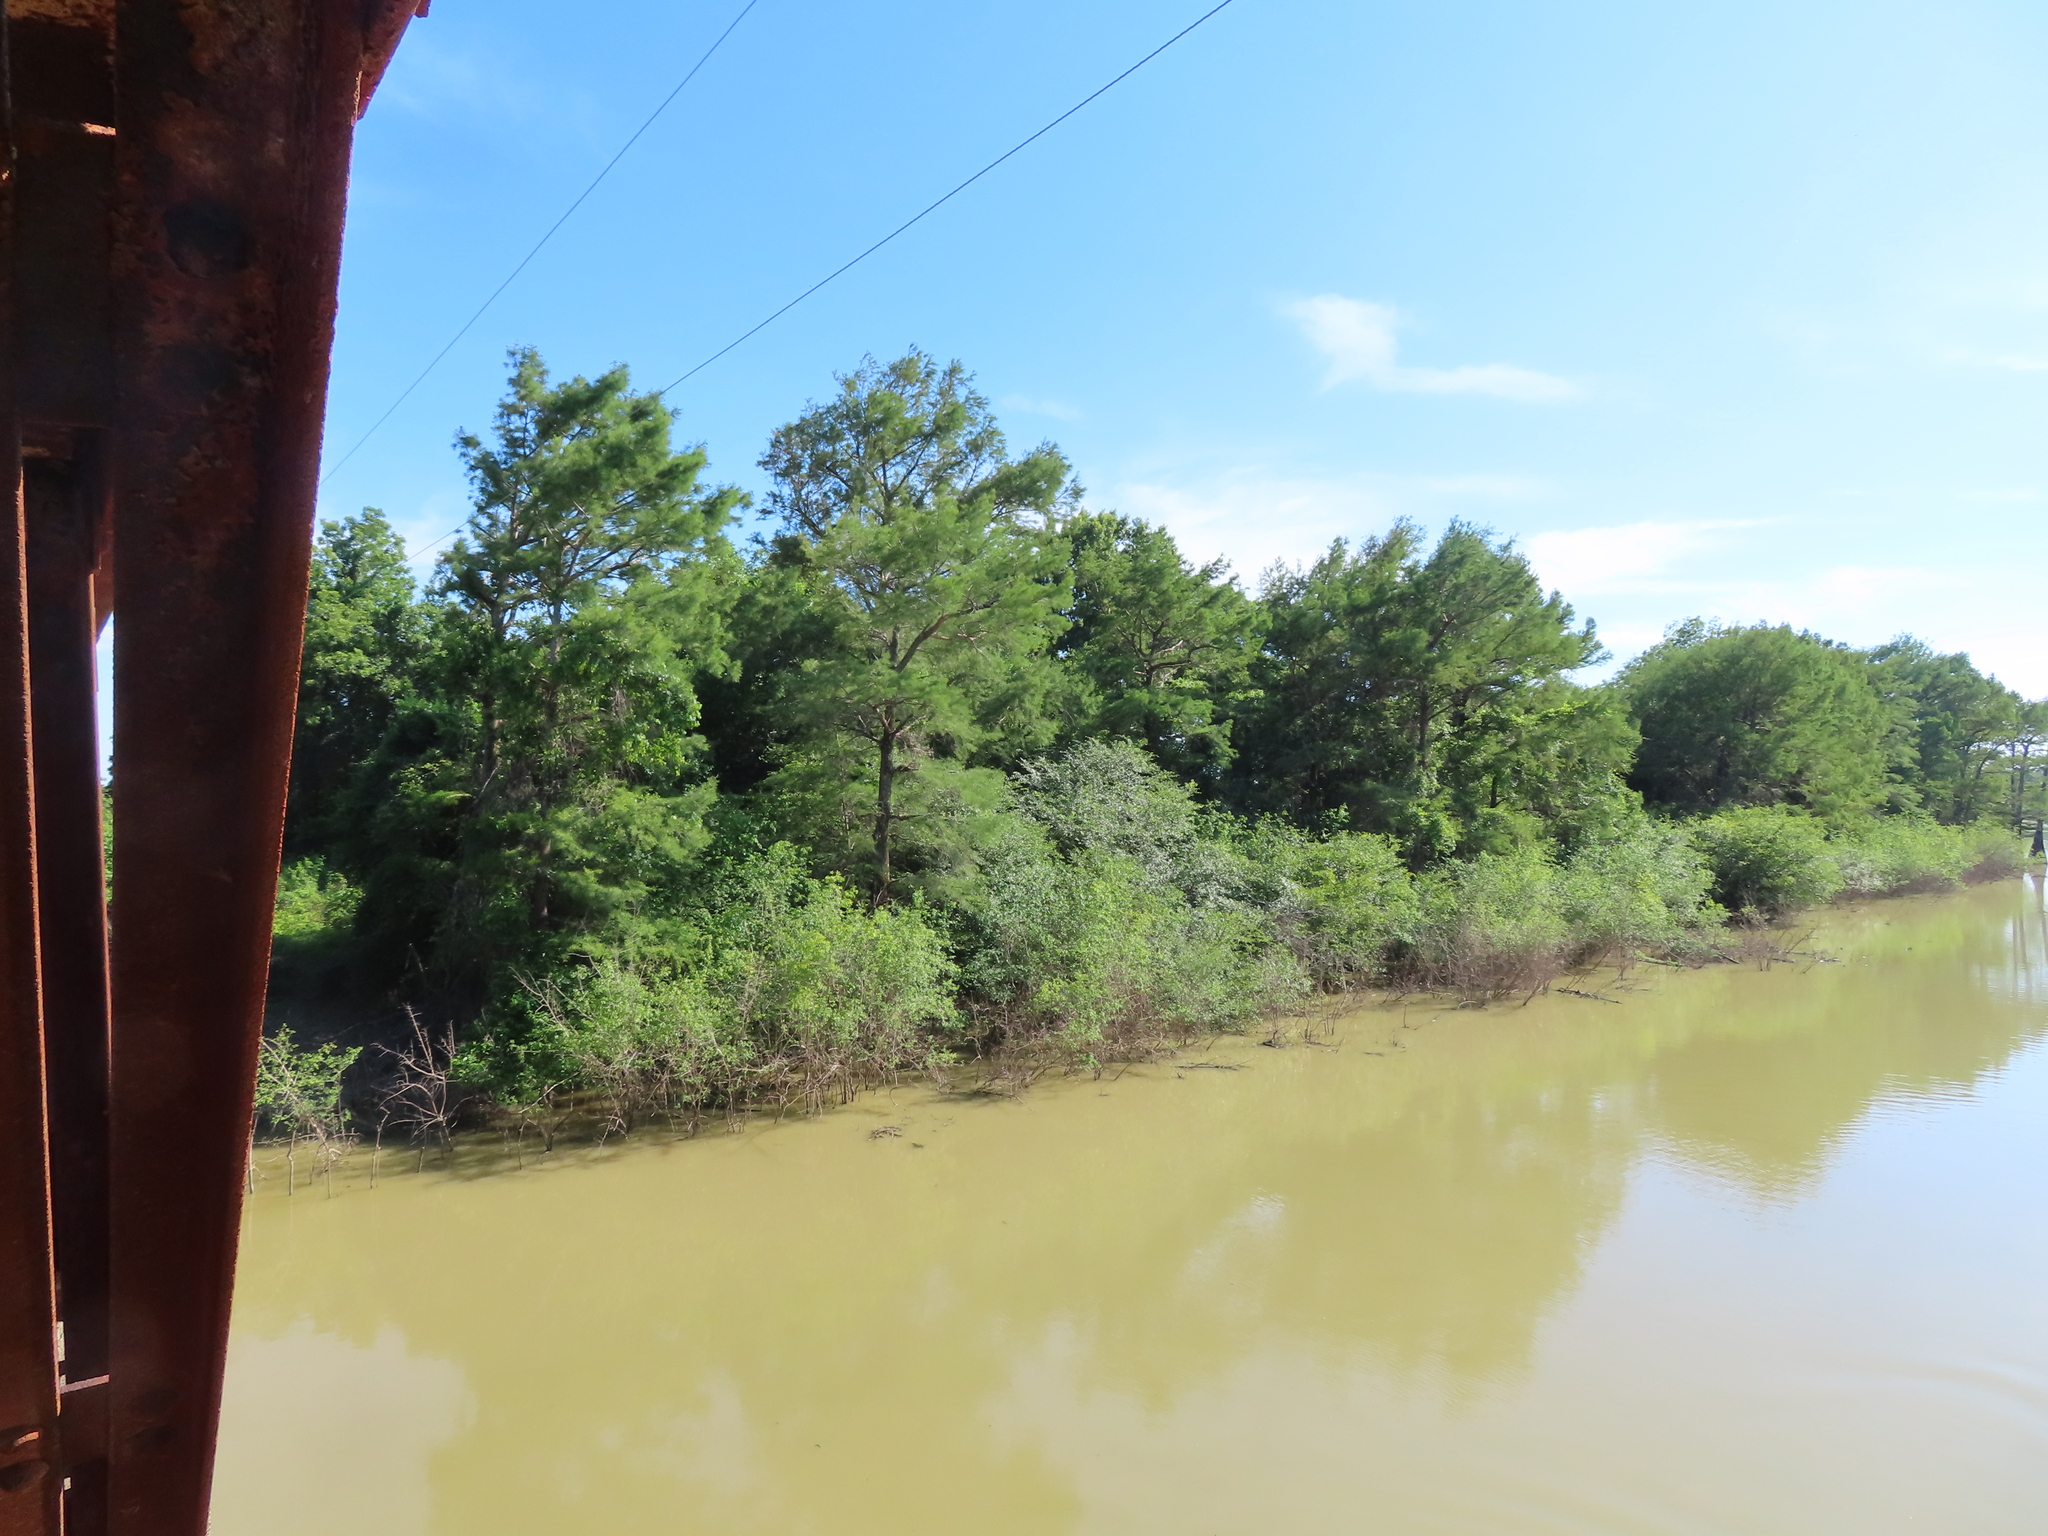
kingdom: Plantae
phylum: Tracheophyta
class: Pinopsida
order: Pinales
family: Cupressaceae
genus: Taxodium
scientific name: Taxodium distichum
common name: Bald cypress
